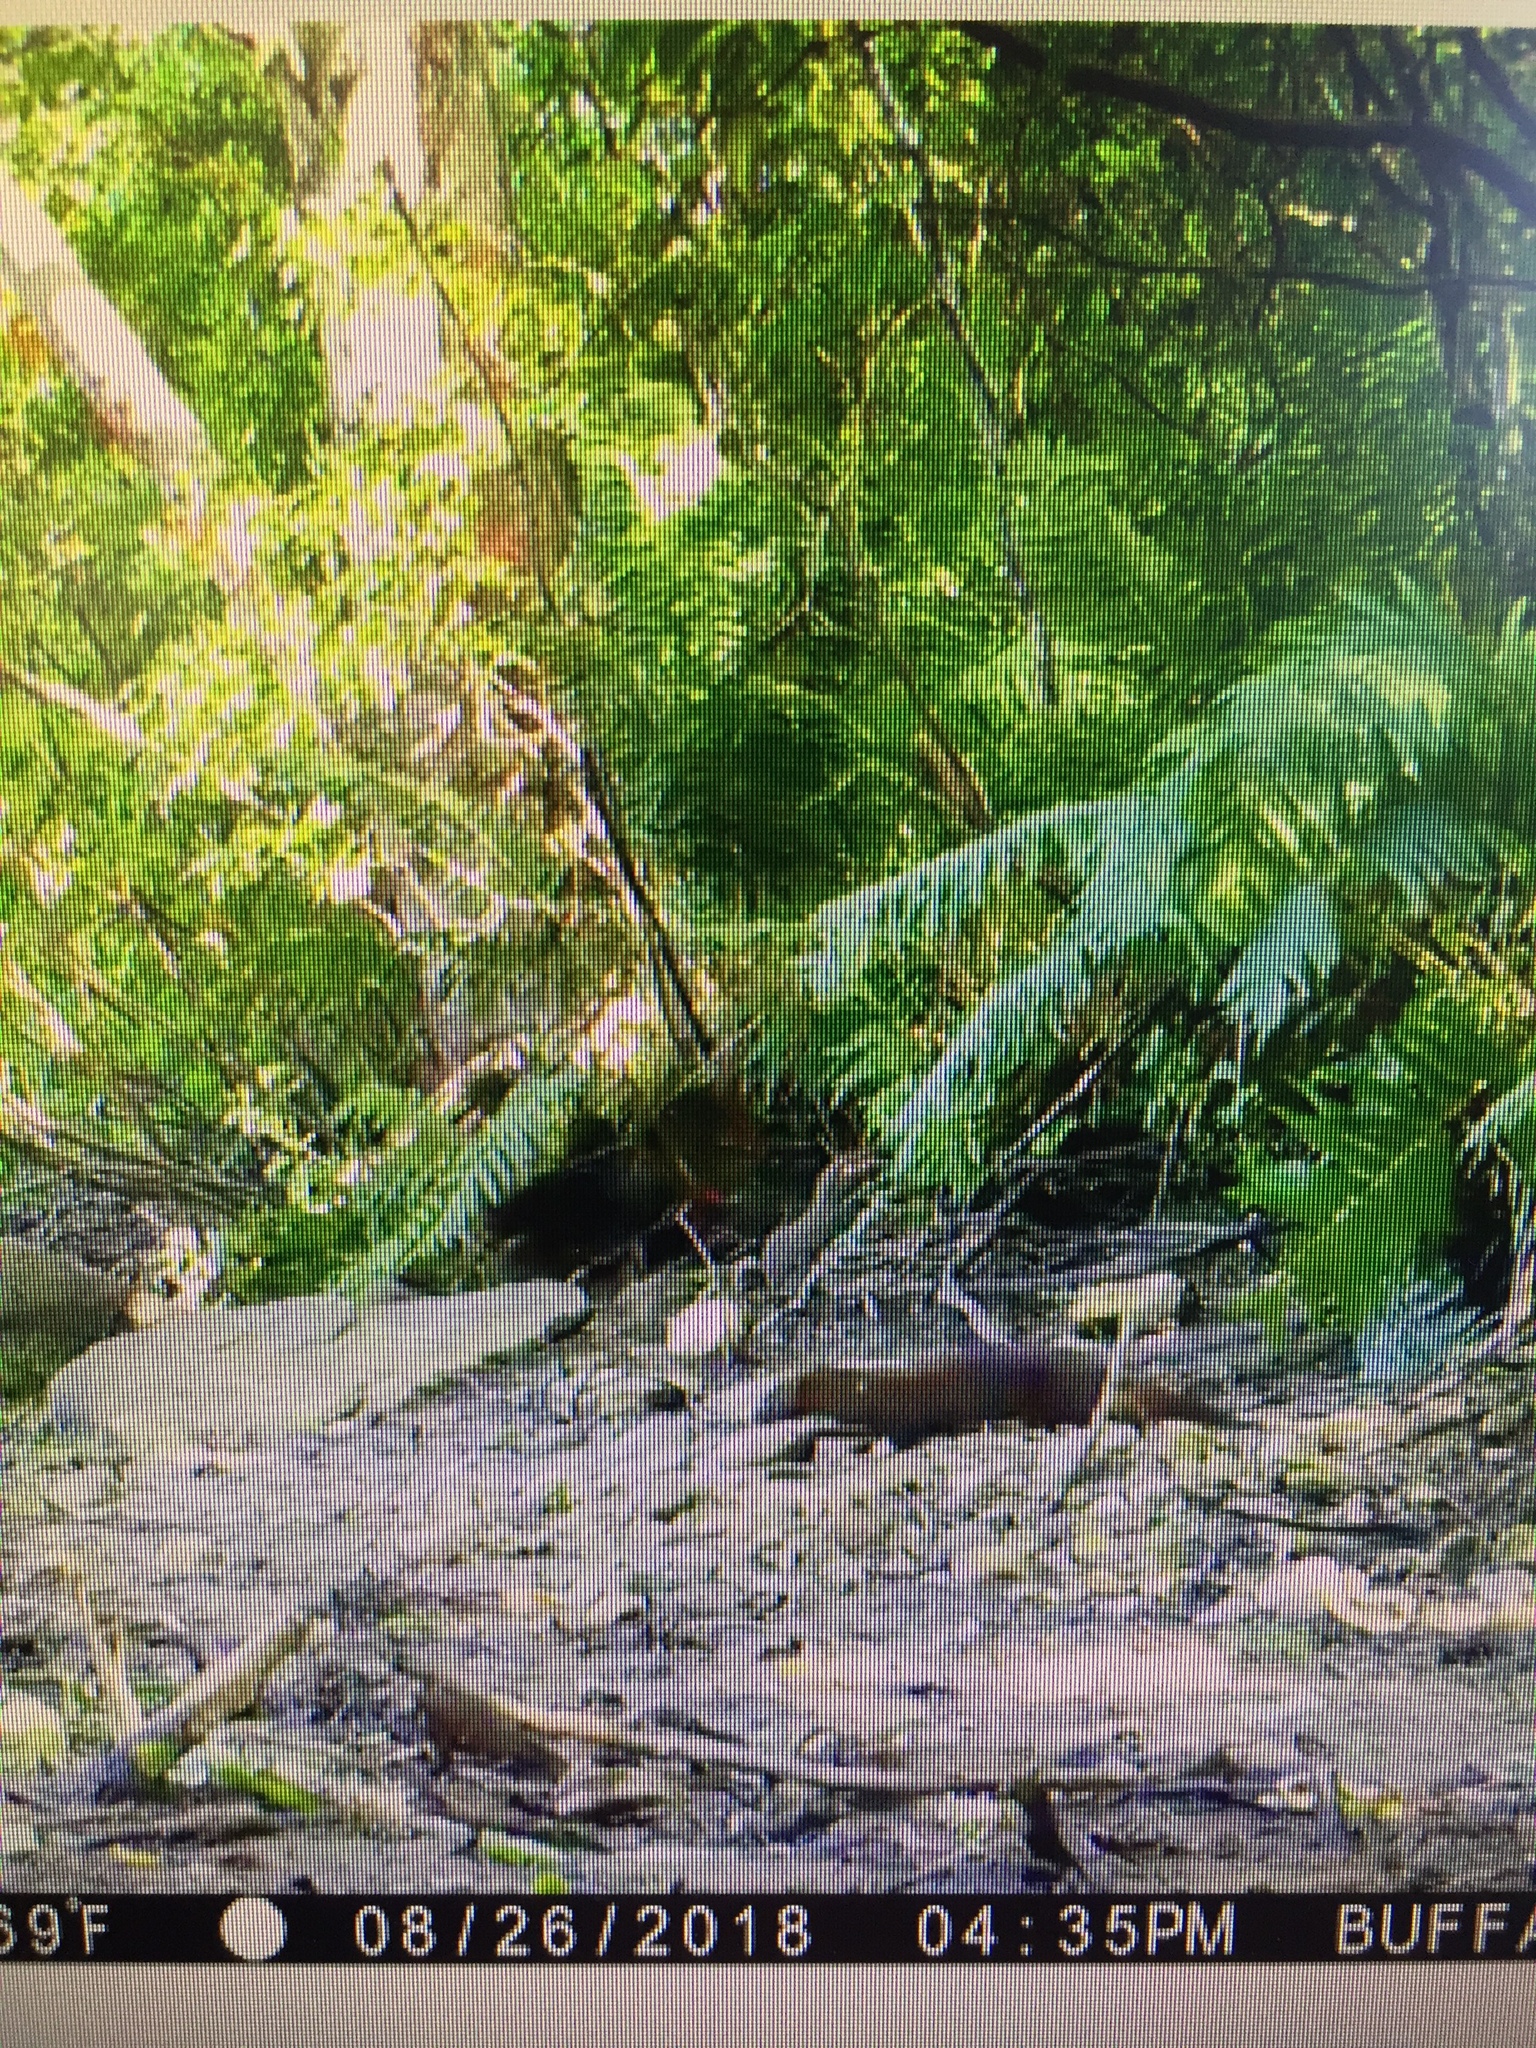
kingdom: Animalia
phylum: Chordata
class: Mammalia
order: Carnivora
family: Mustelidae
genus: Mustela
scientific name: Mustela
